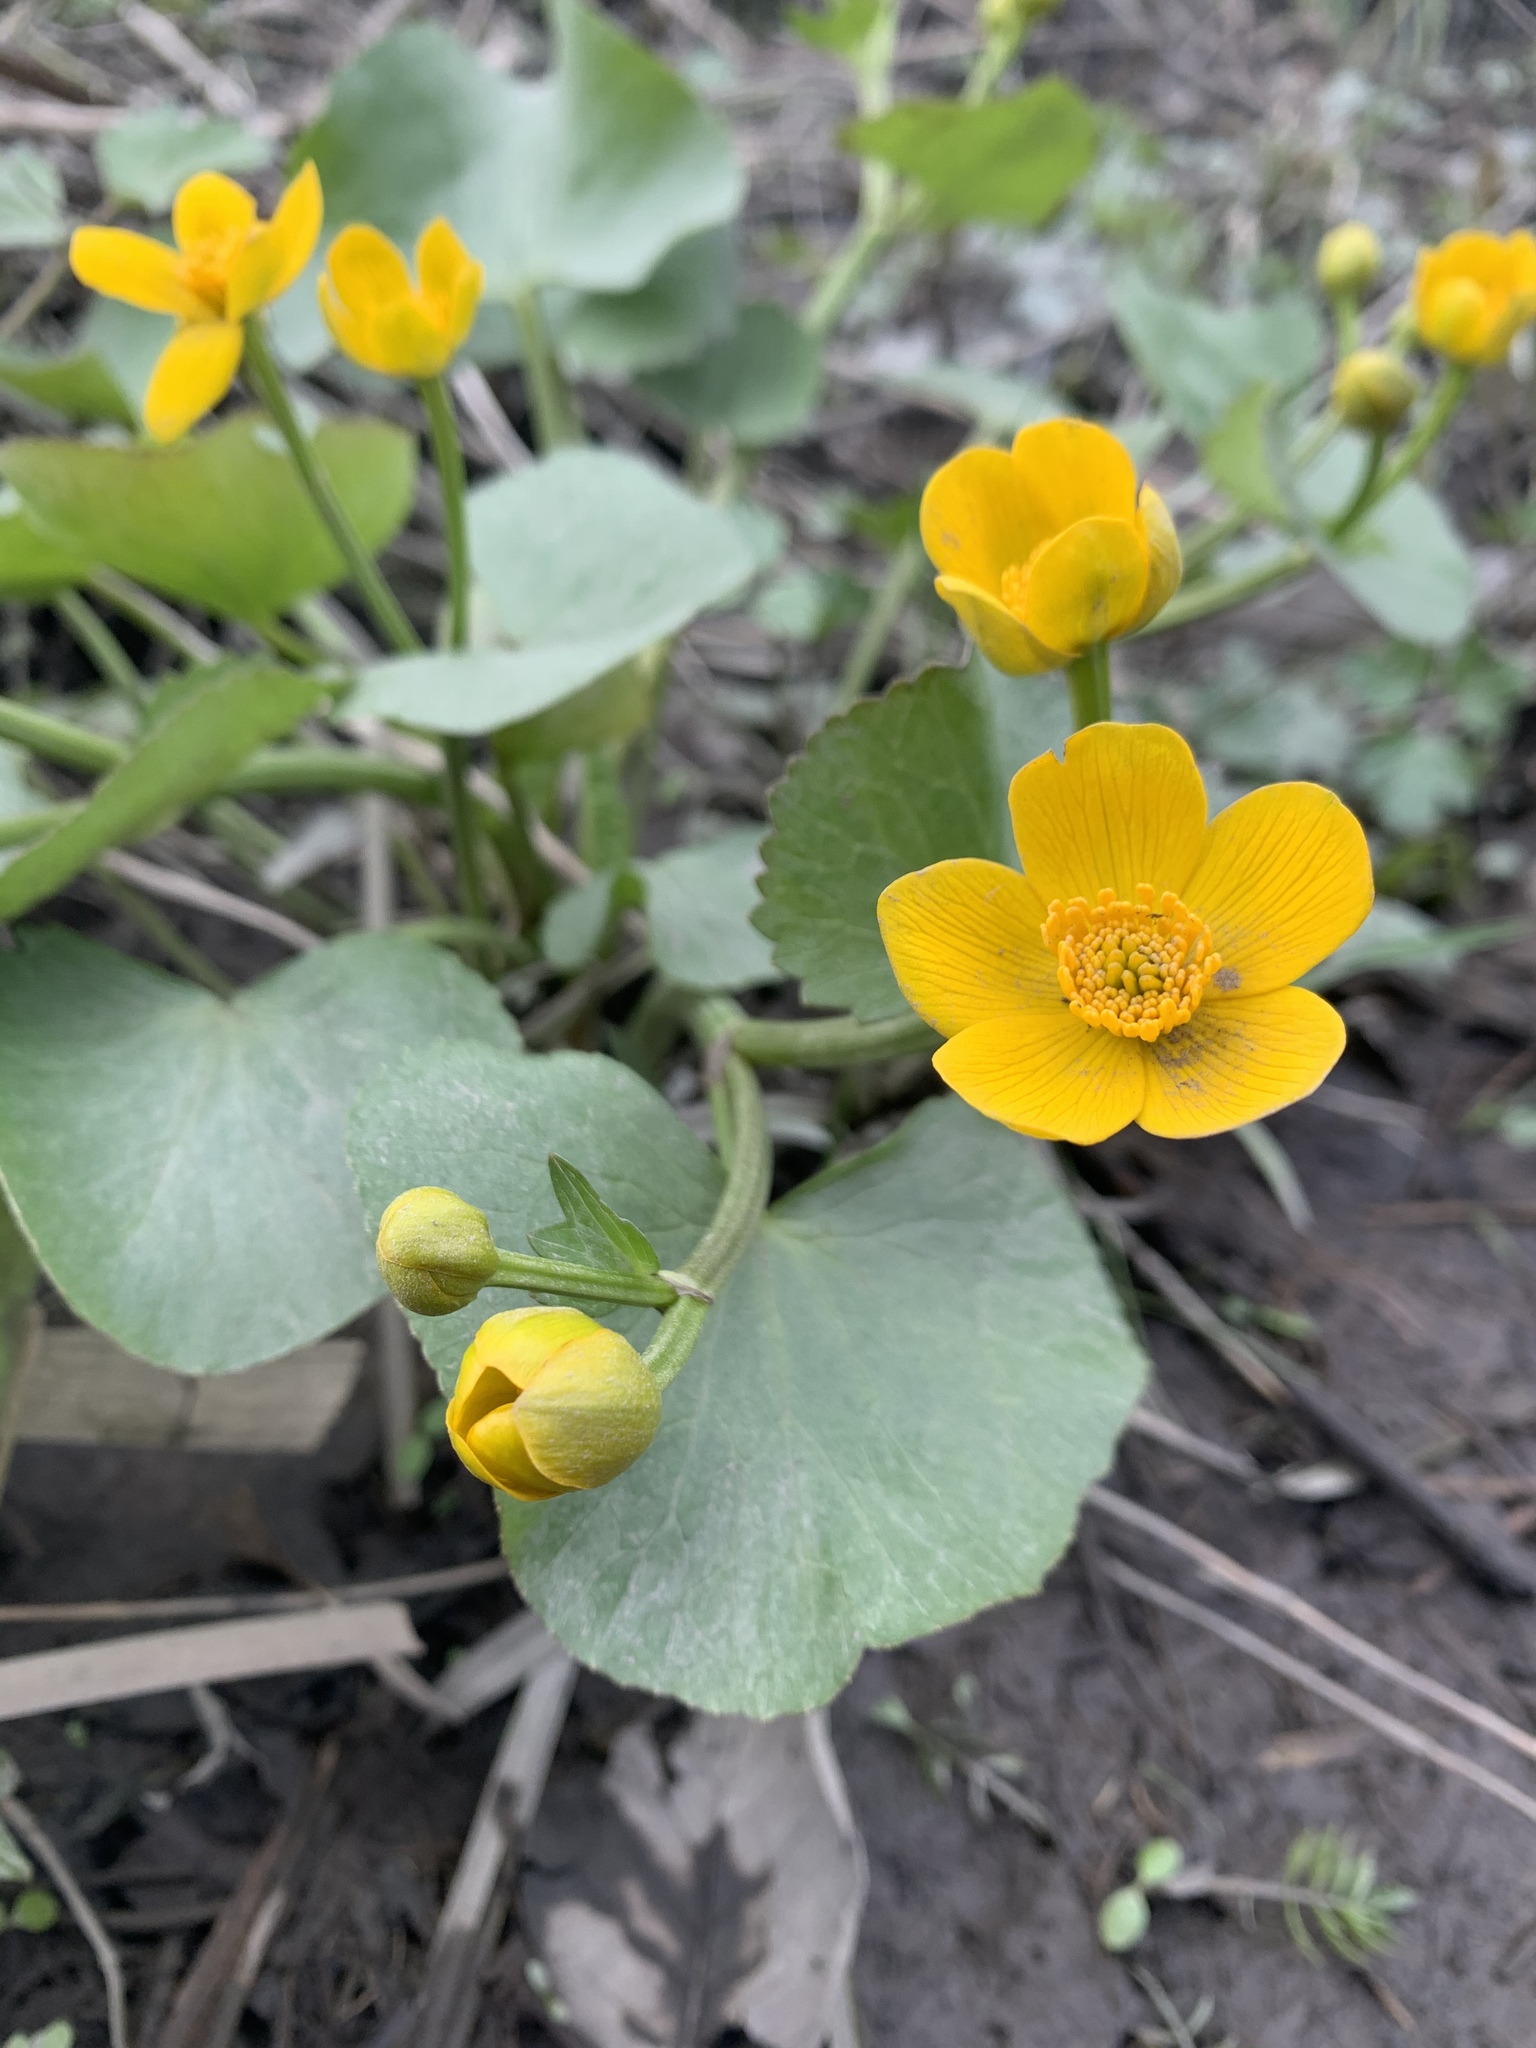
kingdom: Plantae
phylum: Tracheophyta
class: Magnoliopsida
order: Ranunculales
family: Ranunculaceae
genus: Caltha
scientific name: Caltha palustris
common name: Marsh marigold
